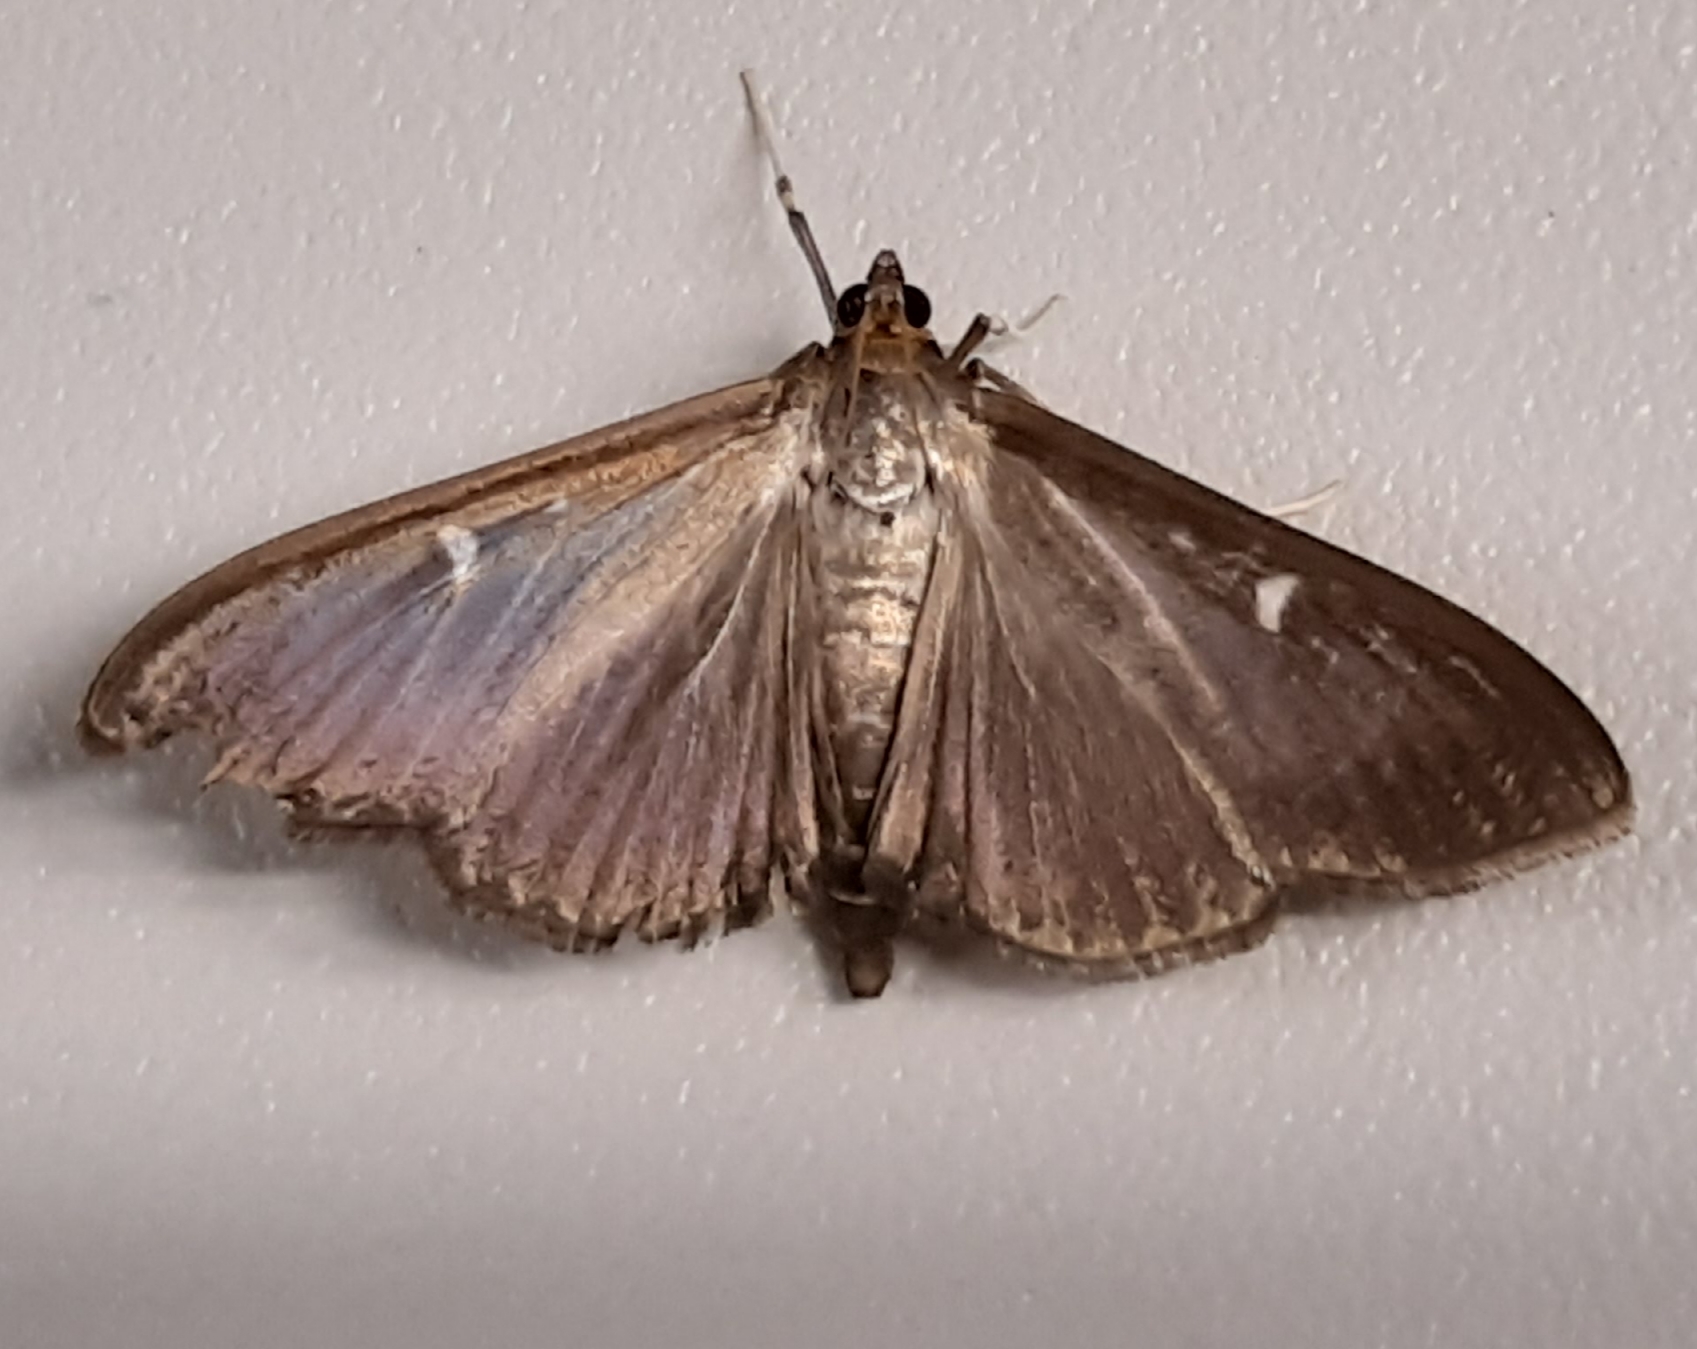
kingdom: Animalia
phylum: Arthropoda
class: Insecta
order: Lepidoptera
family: Crambidae
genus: Cydalima
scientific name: Cydalima perspectalis
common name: Box tree moth
